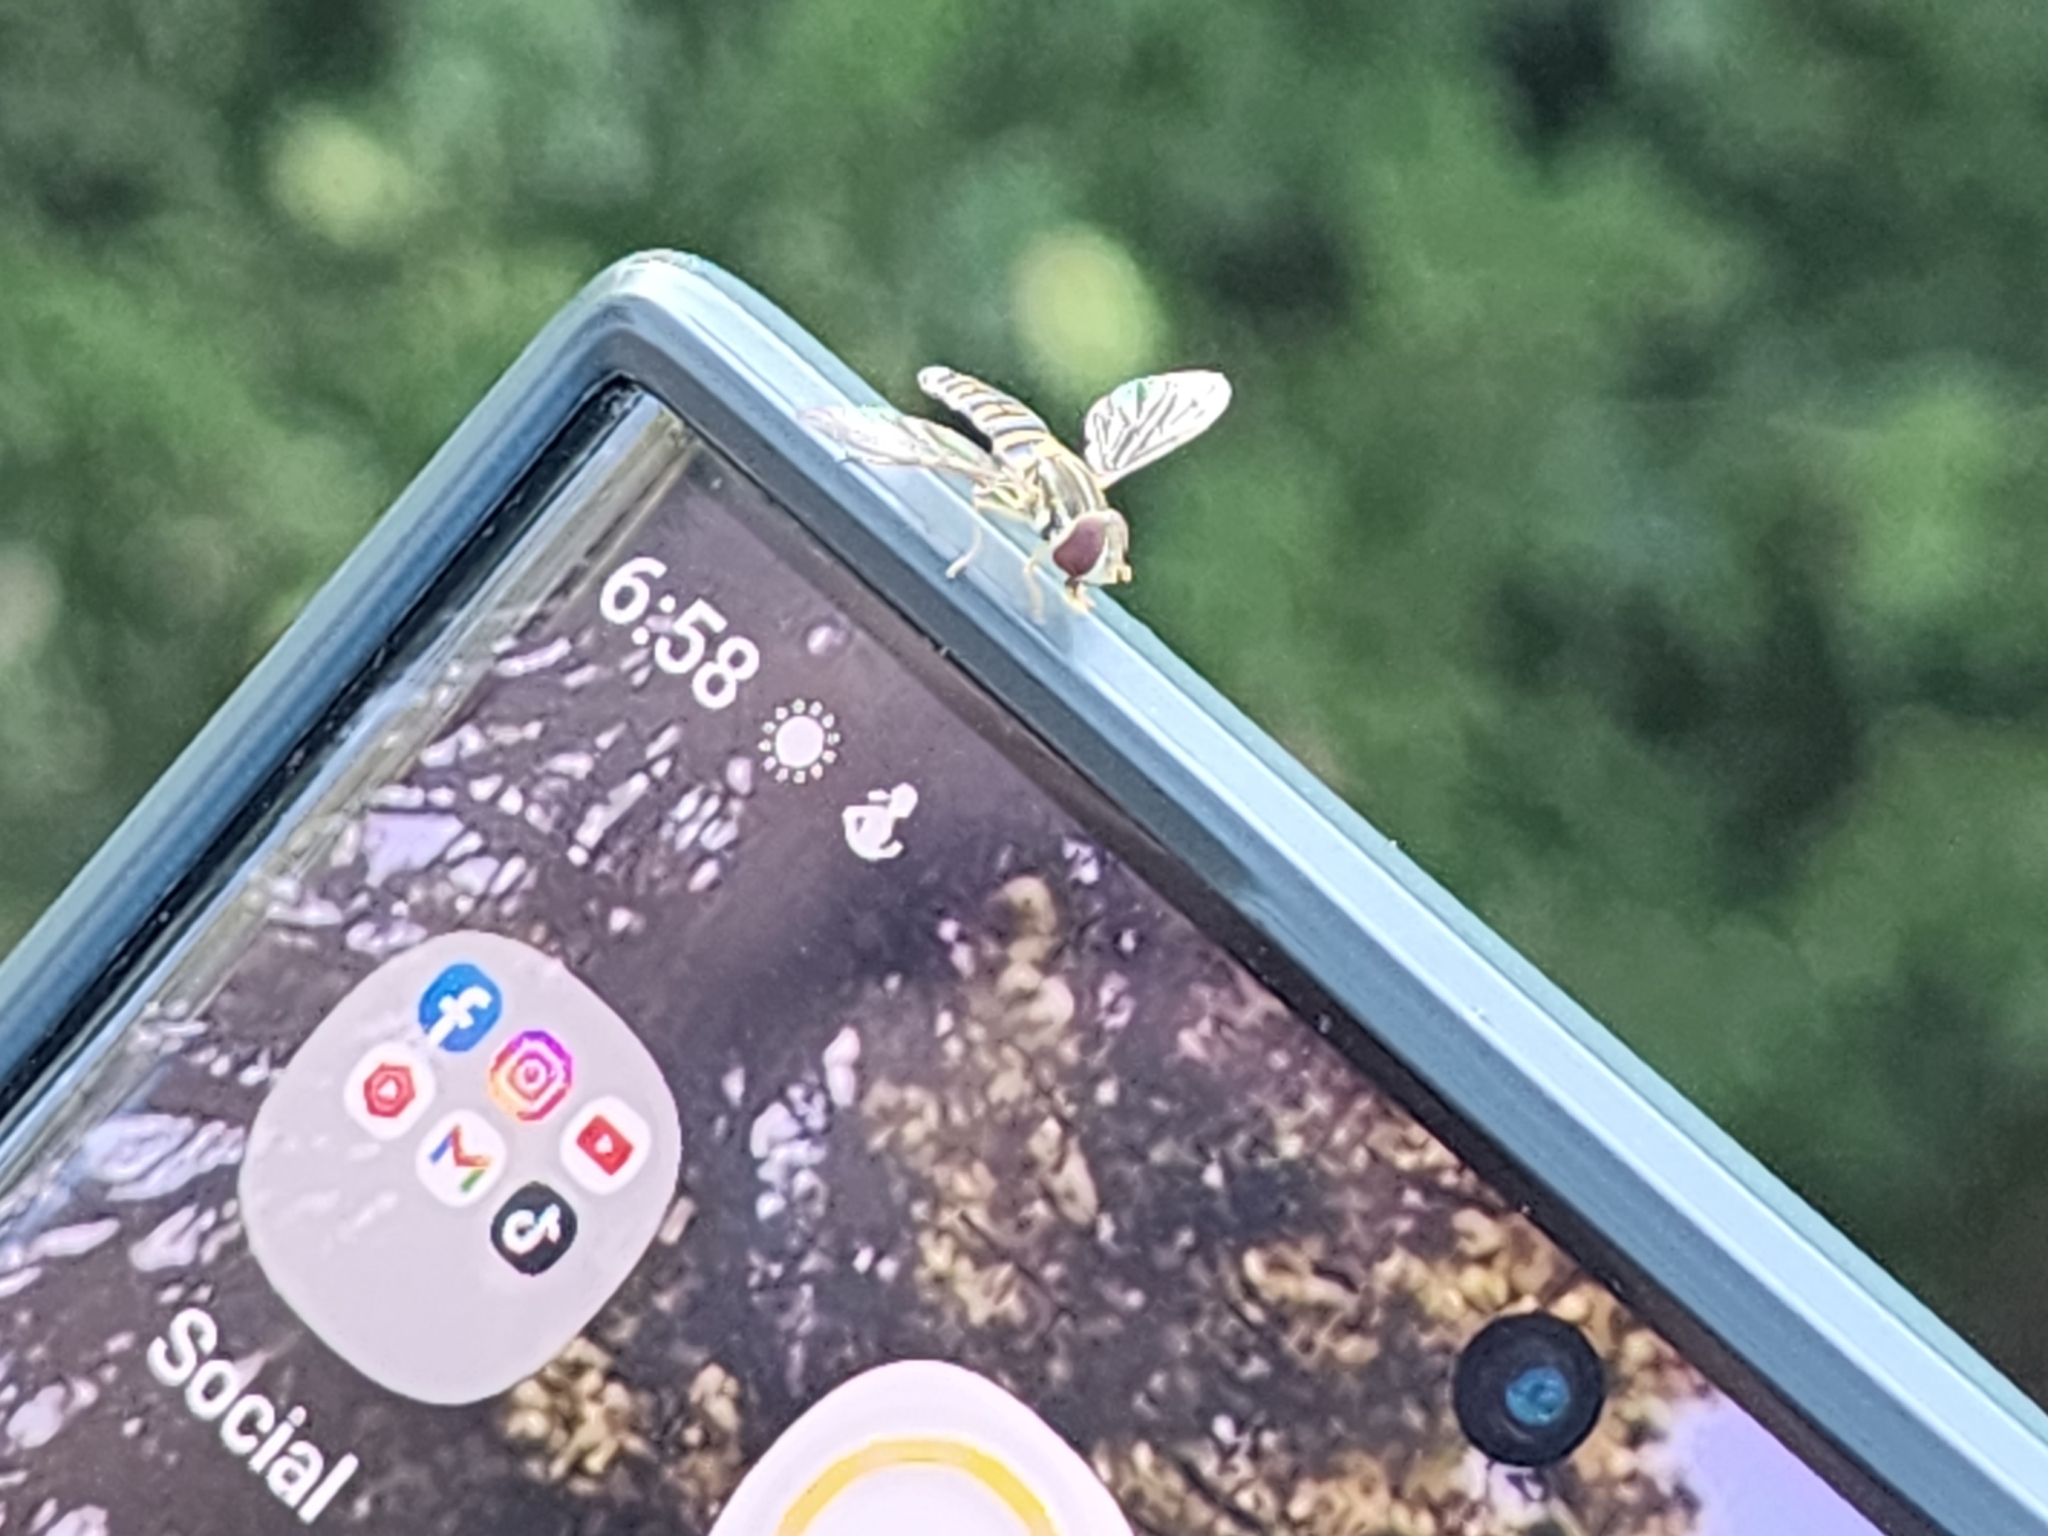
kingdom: Animalia
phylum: Arthropoda
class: Insecta
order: Diptera
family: Syrphidae
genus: Toxomerus
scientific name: Toxomerus politus
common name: Maize calligrapher
